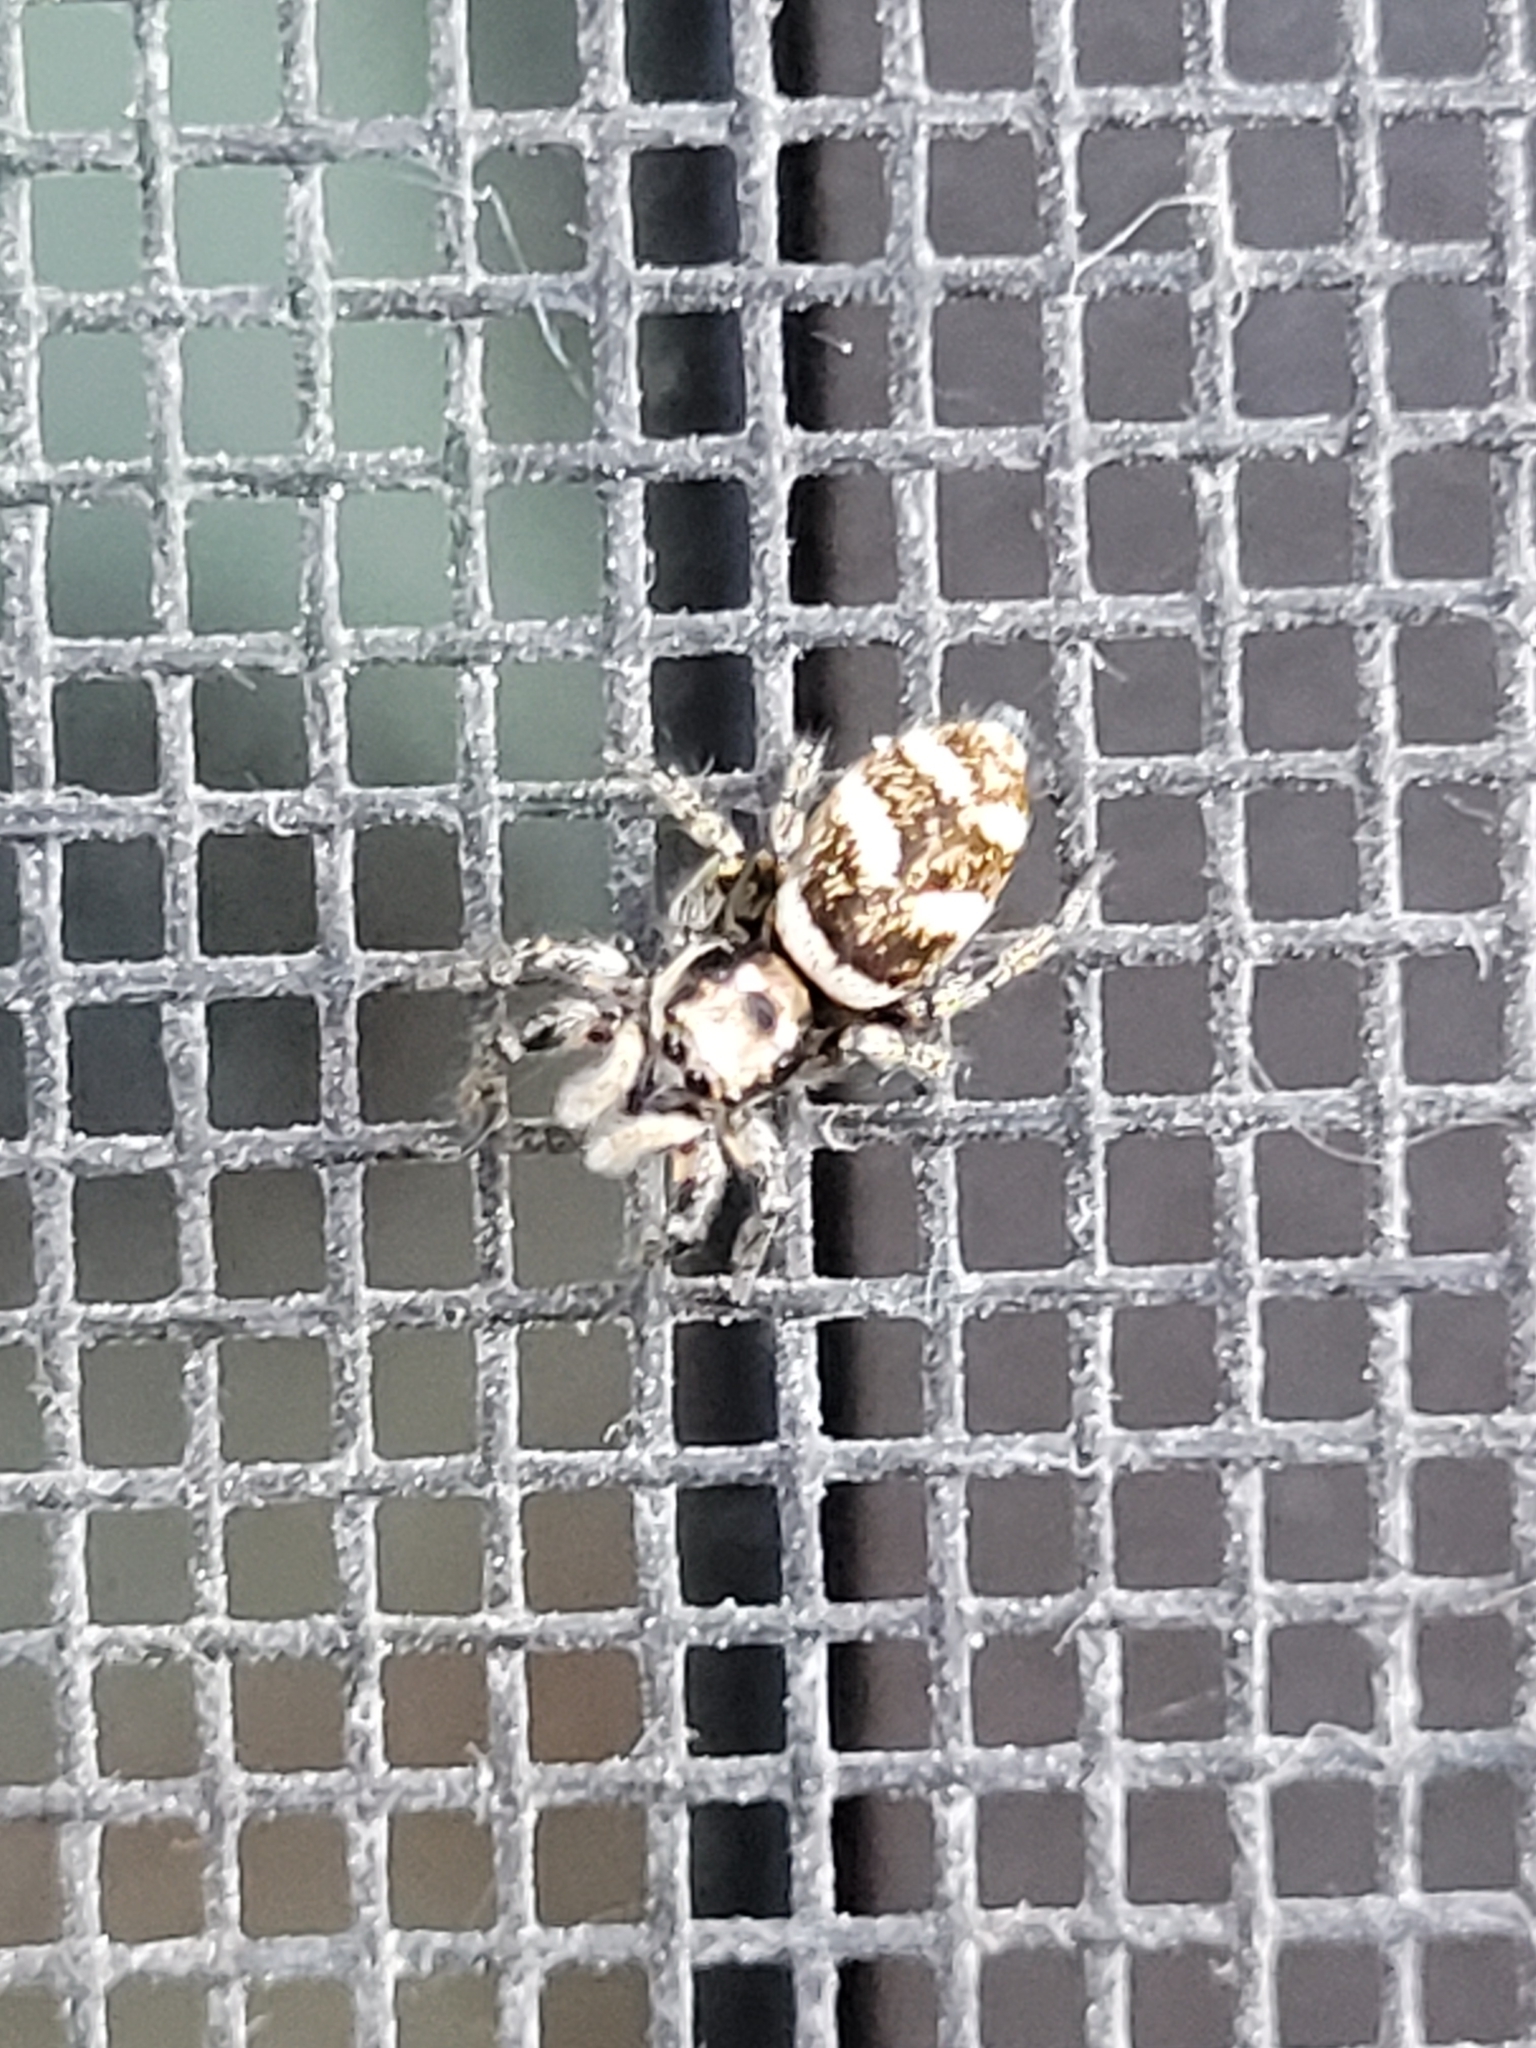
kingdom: Animalia
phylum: Arthropoda
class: Arachnida
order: Araneae
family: Salticidae
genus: Salticus
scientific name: Salticus scenicus
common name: Zebra jumper
